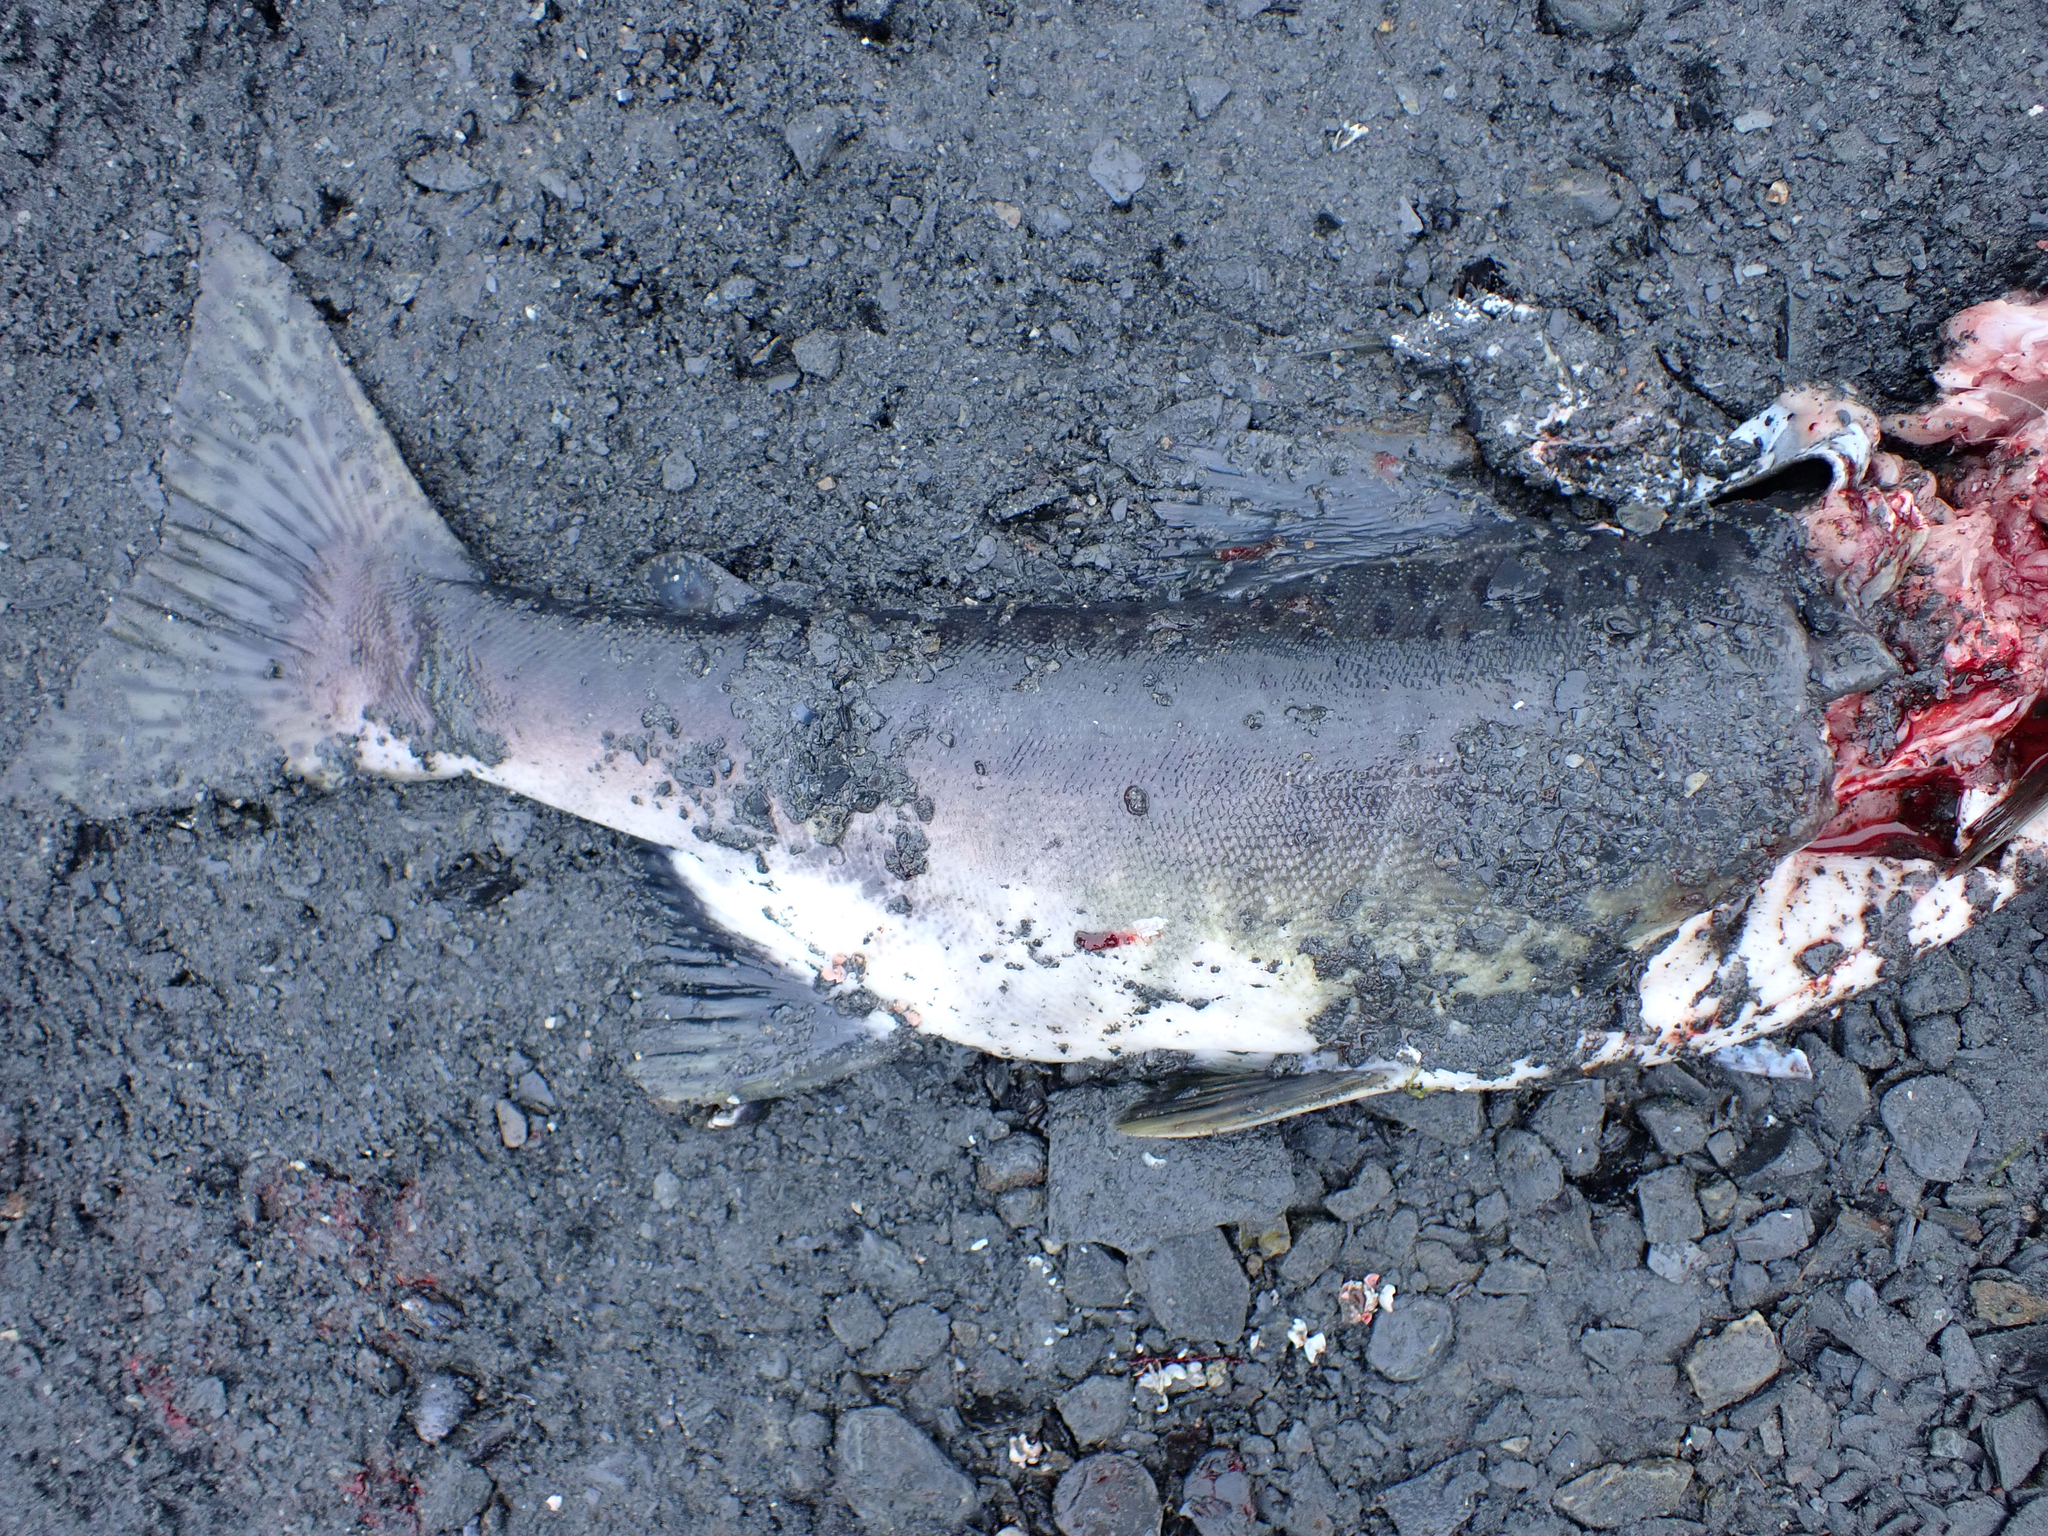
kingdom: Animalia
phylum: Chordata
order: Salmoniformes
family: Salmonidae
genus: Oncorhynchus
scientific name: Oncorhynchus gorbuscha
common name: Humpback salmon
